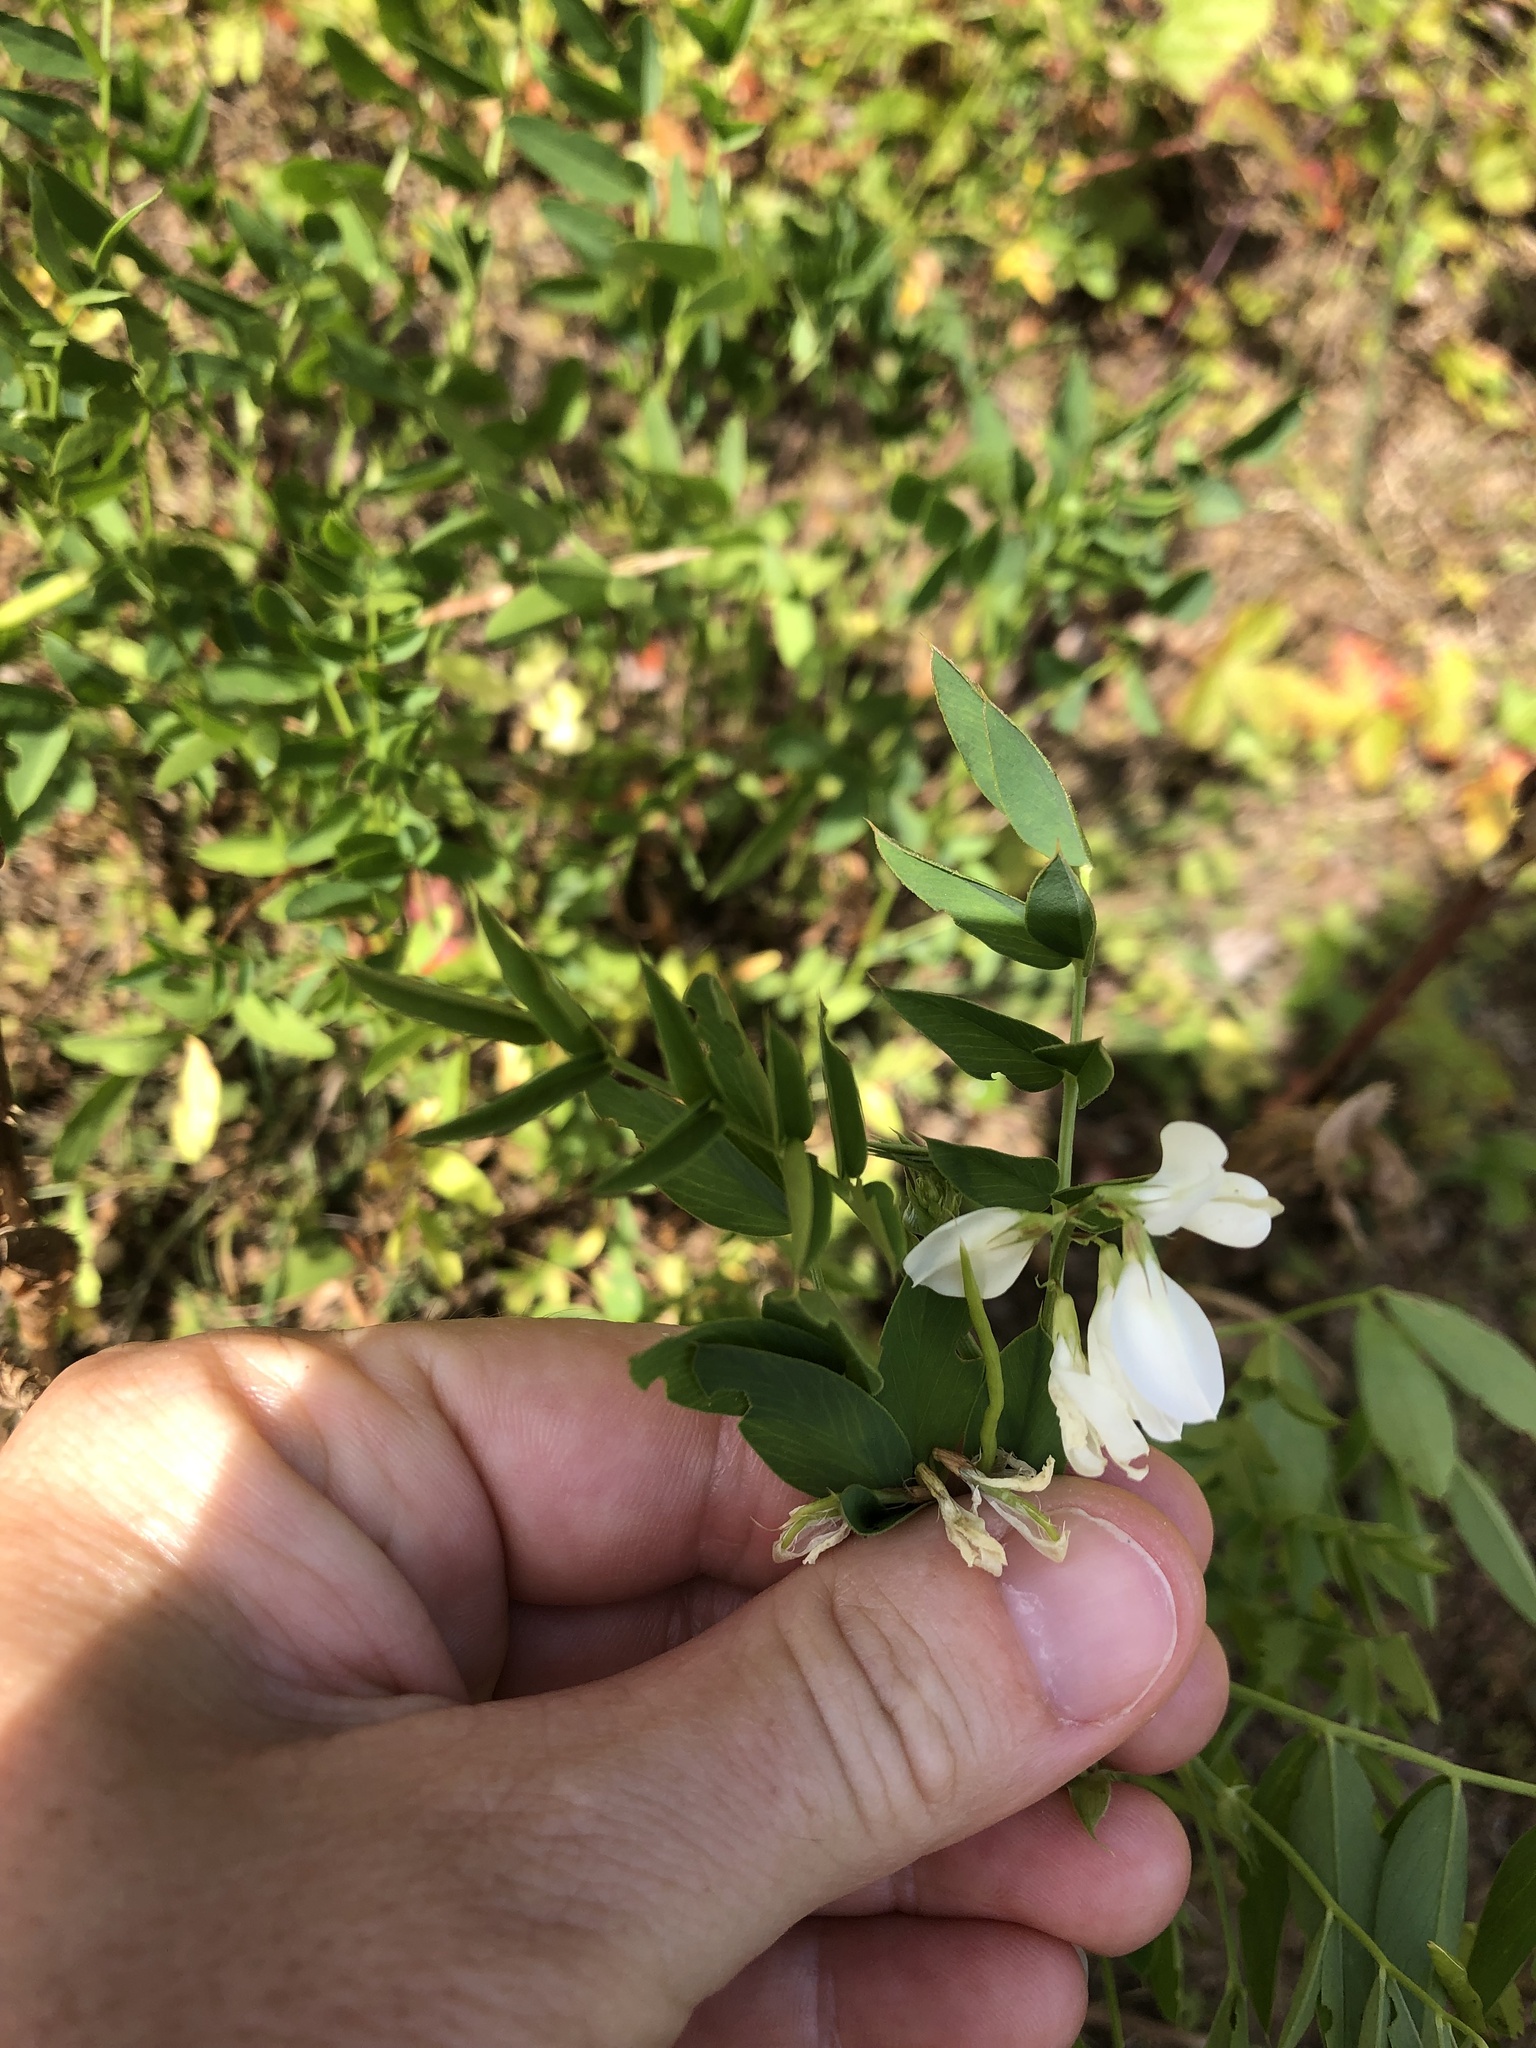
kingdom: Plantae
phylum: Tracheophyta
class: Magnoliopsida
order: Fabales
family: Fabaceae
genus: Galega
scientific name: Galega officinalis
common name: Goat's-rue
